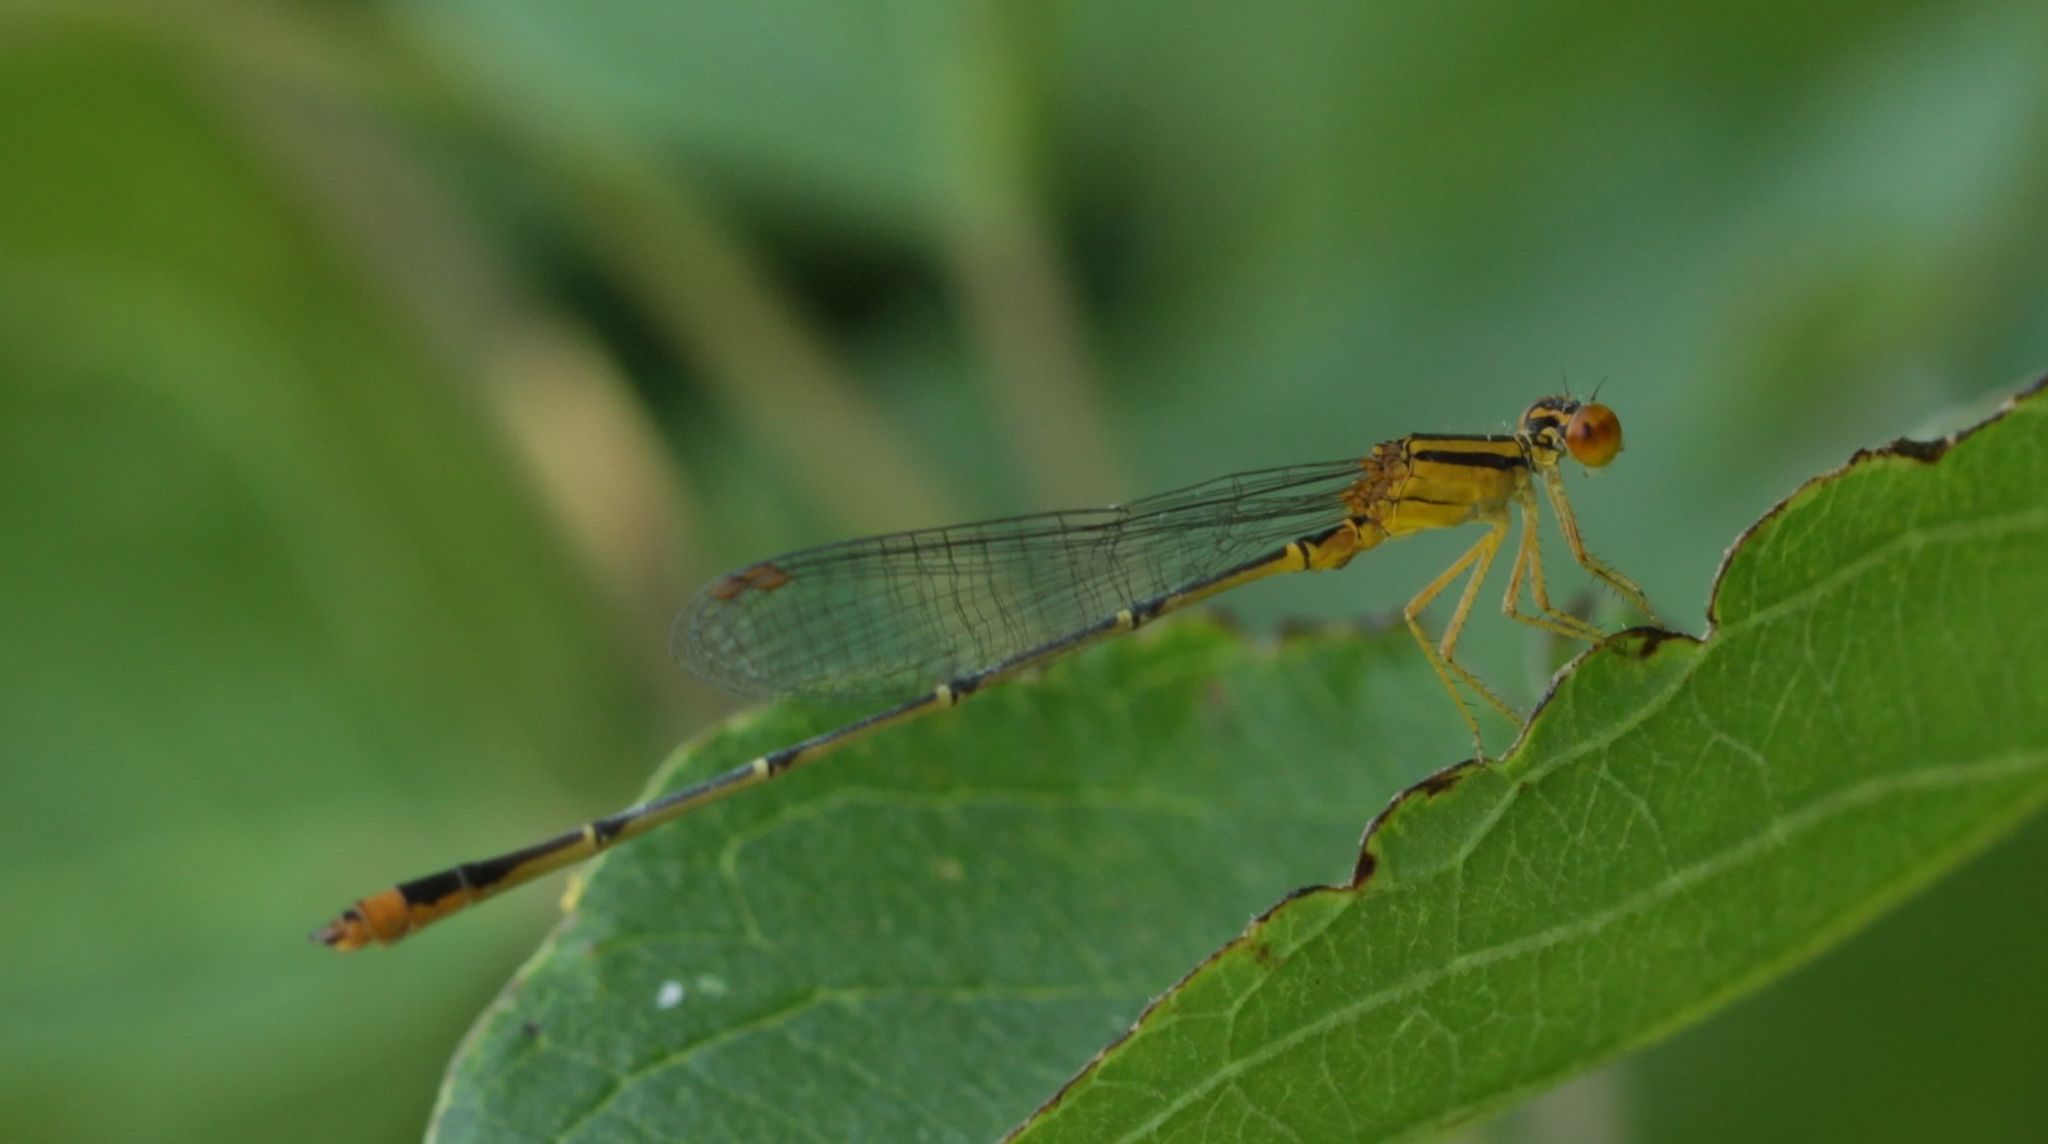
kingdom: Animalia
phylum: Arthropoda
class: Insecta
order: Odonata
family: Coenagrionidae
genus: Enallagma
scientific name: Enallagma signatum
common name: Orange bluet
